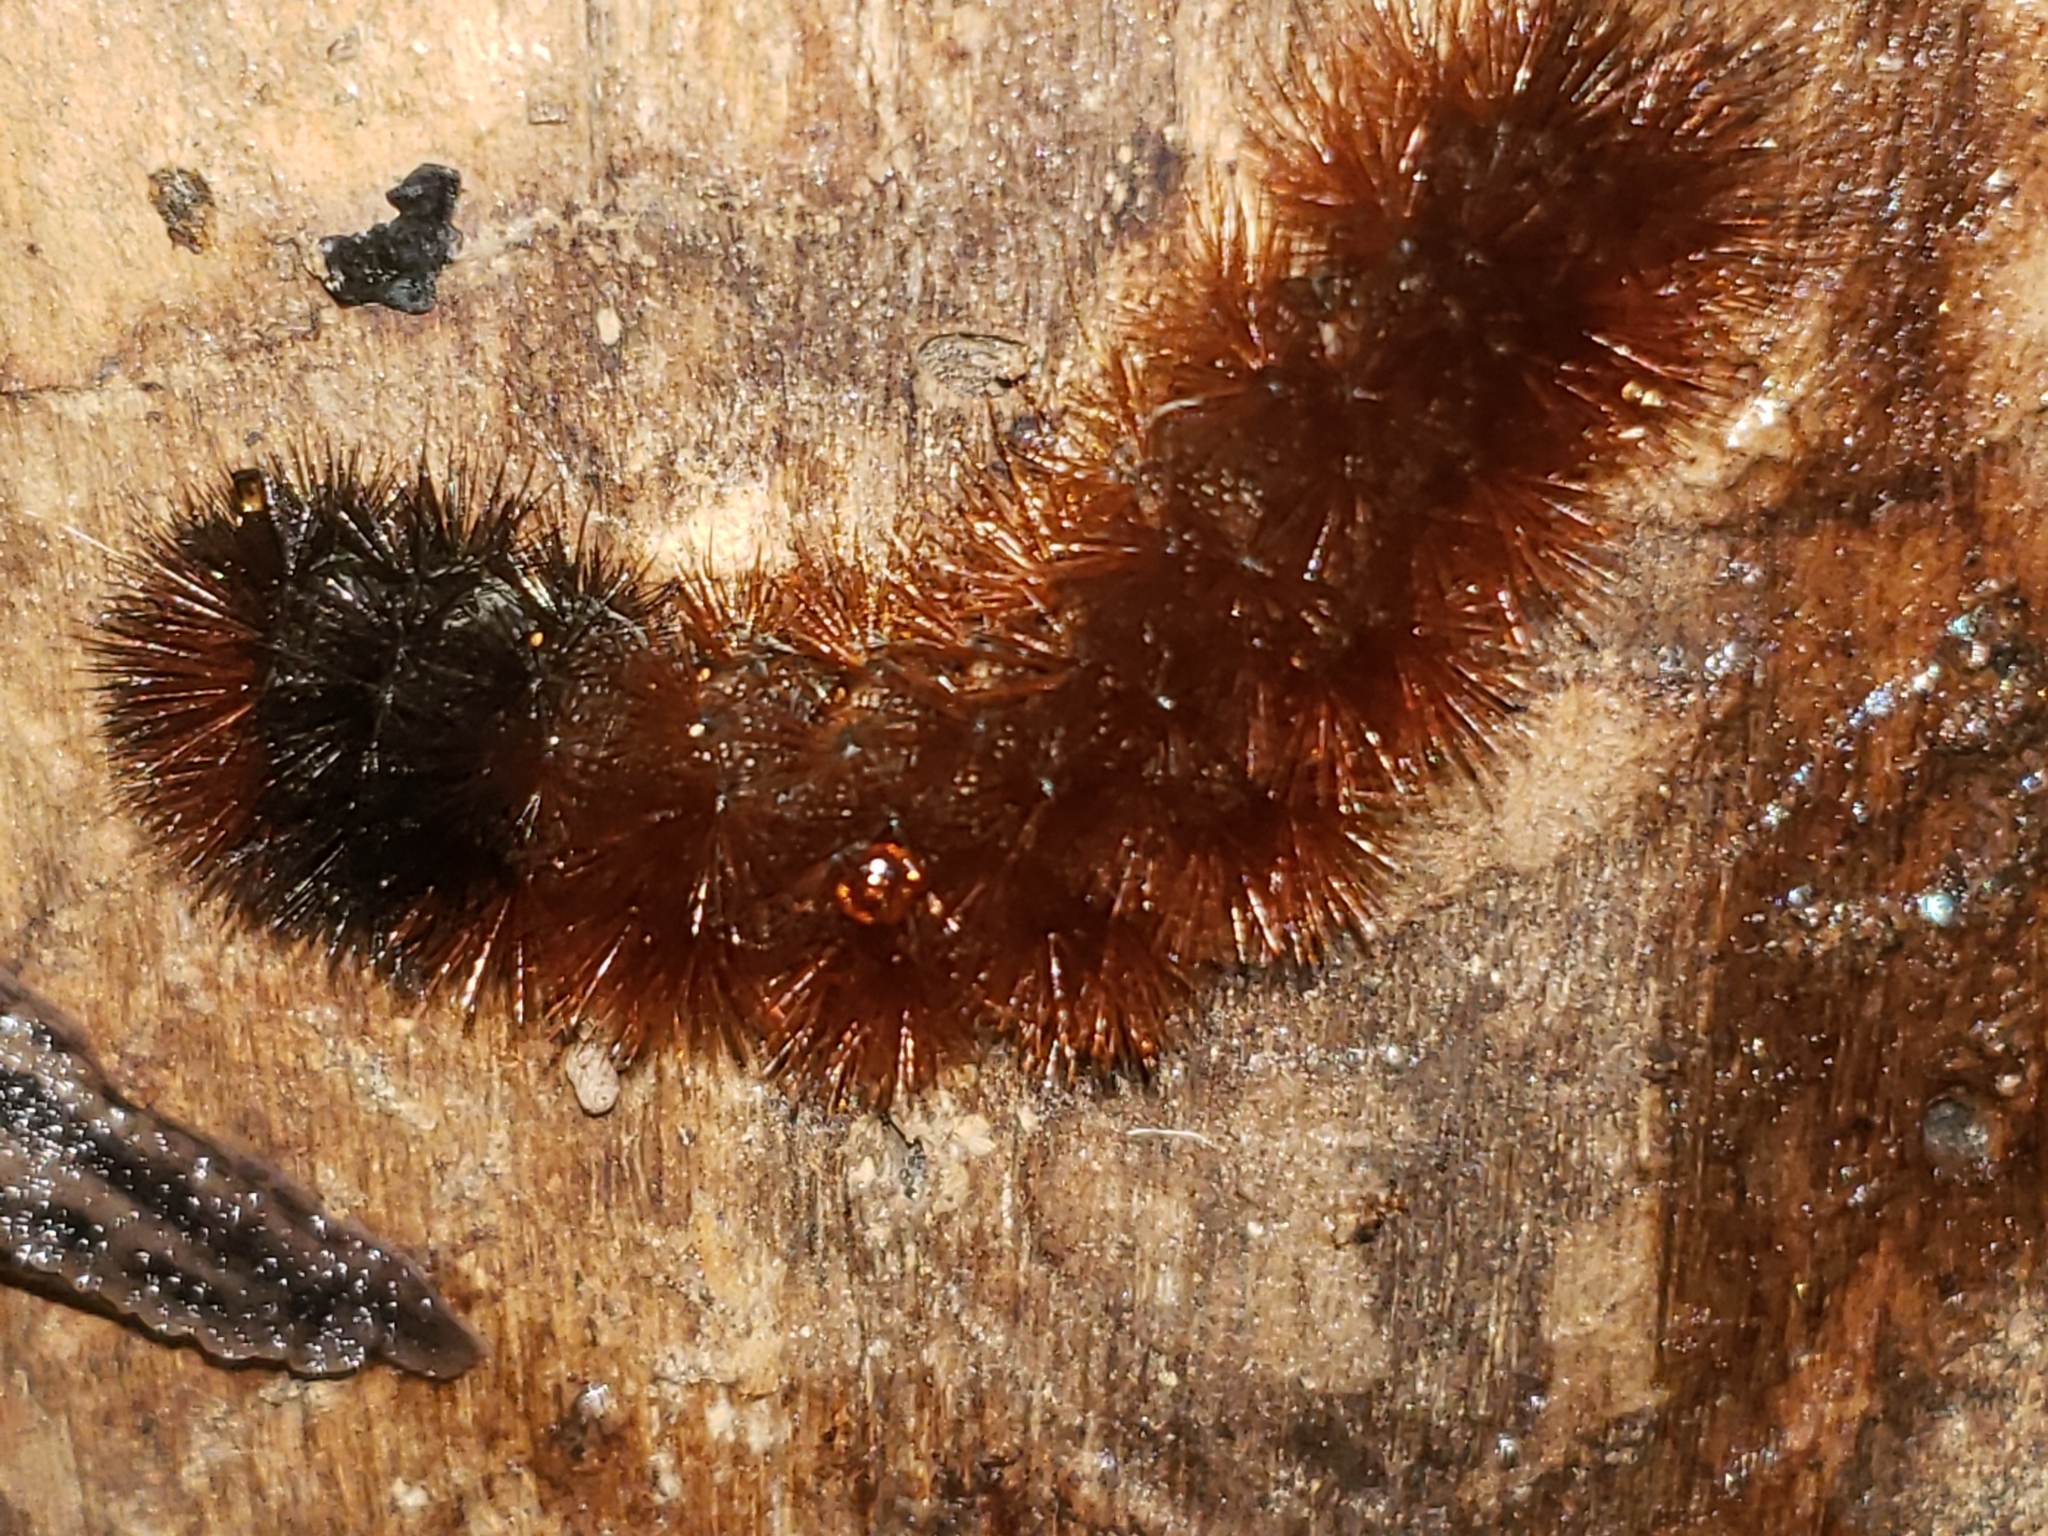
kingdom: Animalia
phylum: Arthropoda
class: Insecta
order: Lepidoptera
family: Erebidae
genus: Pyrrharctia
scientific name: Pyrrharctia isabella
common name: Isabella tiger moth
